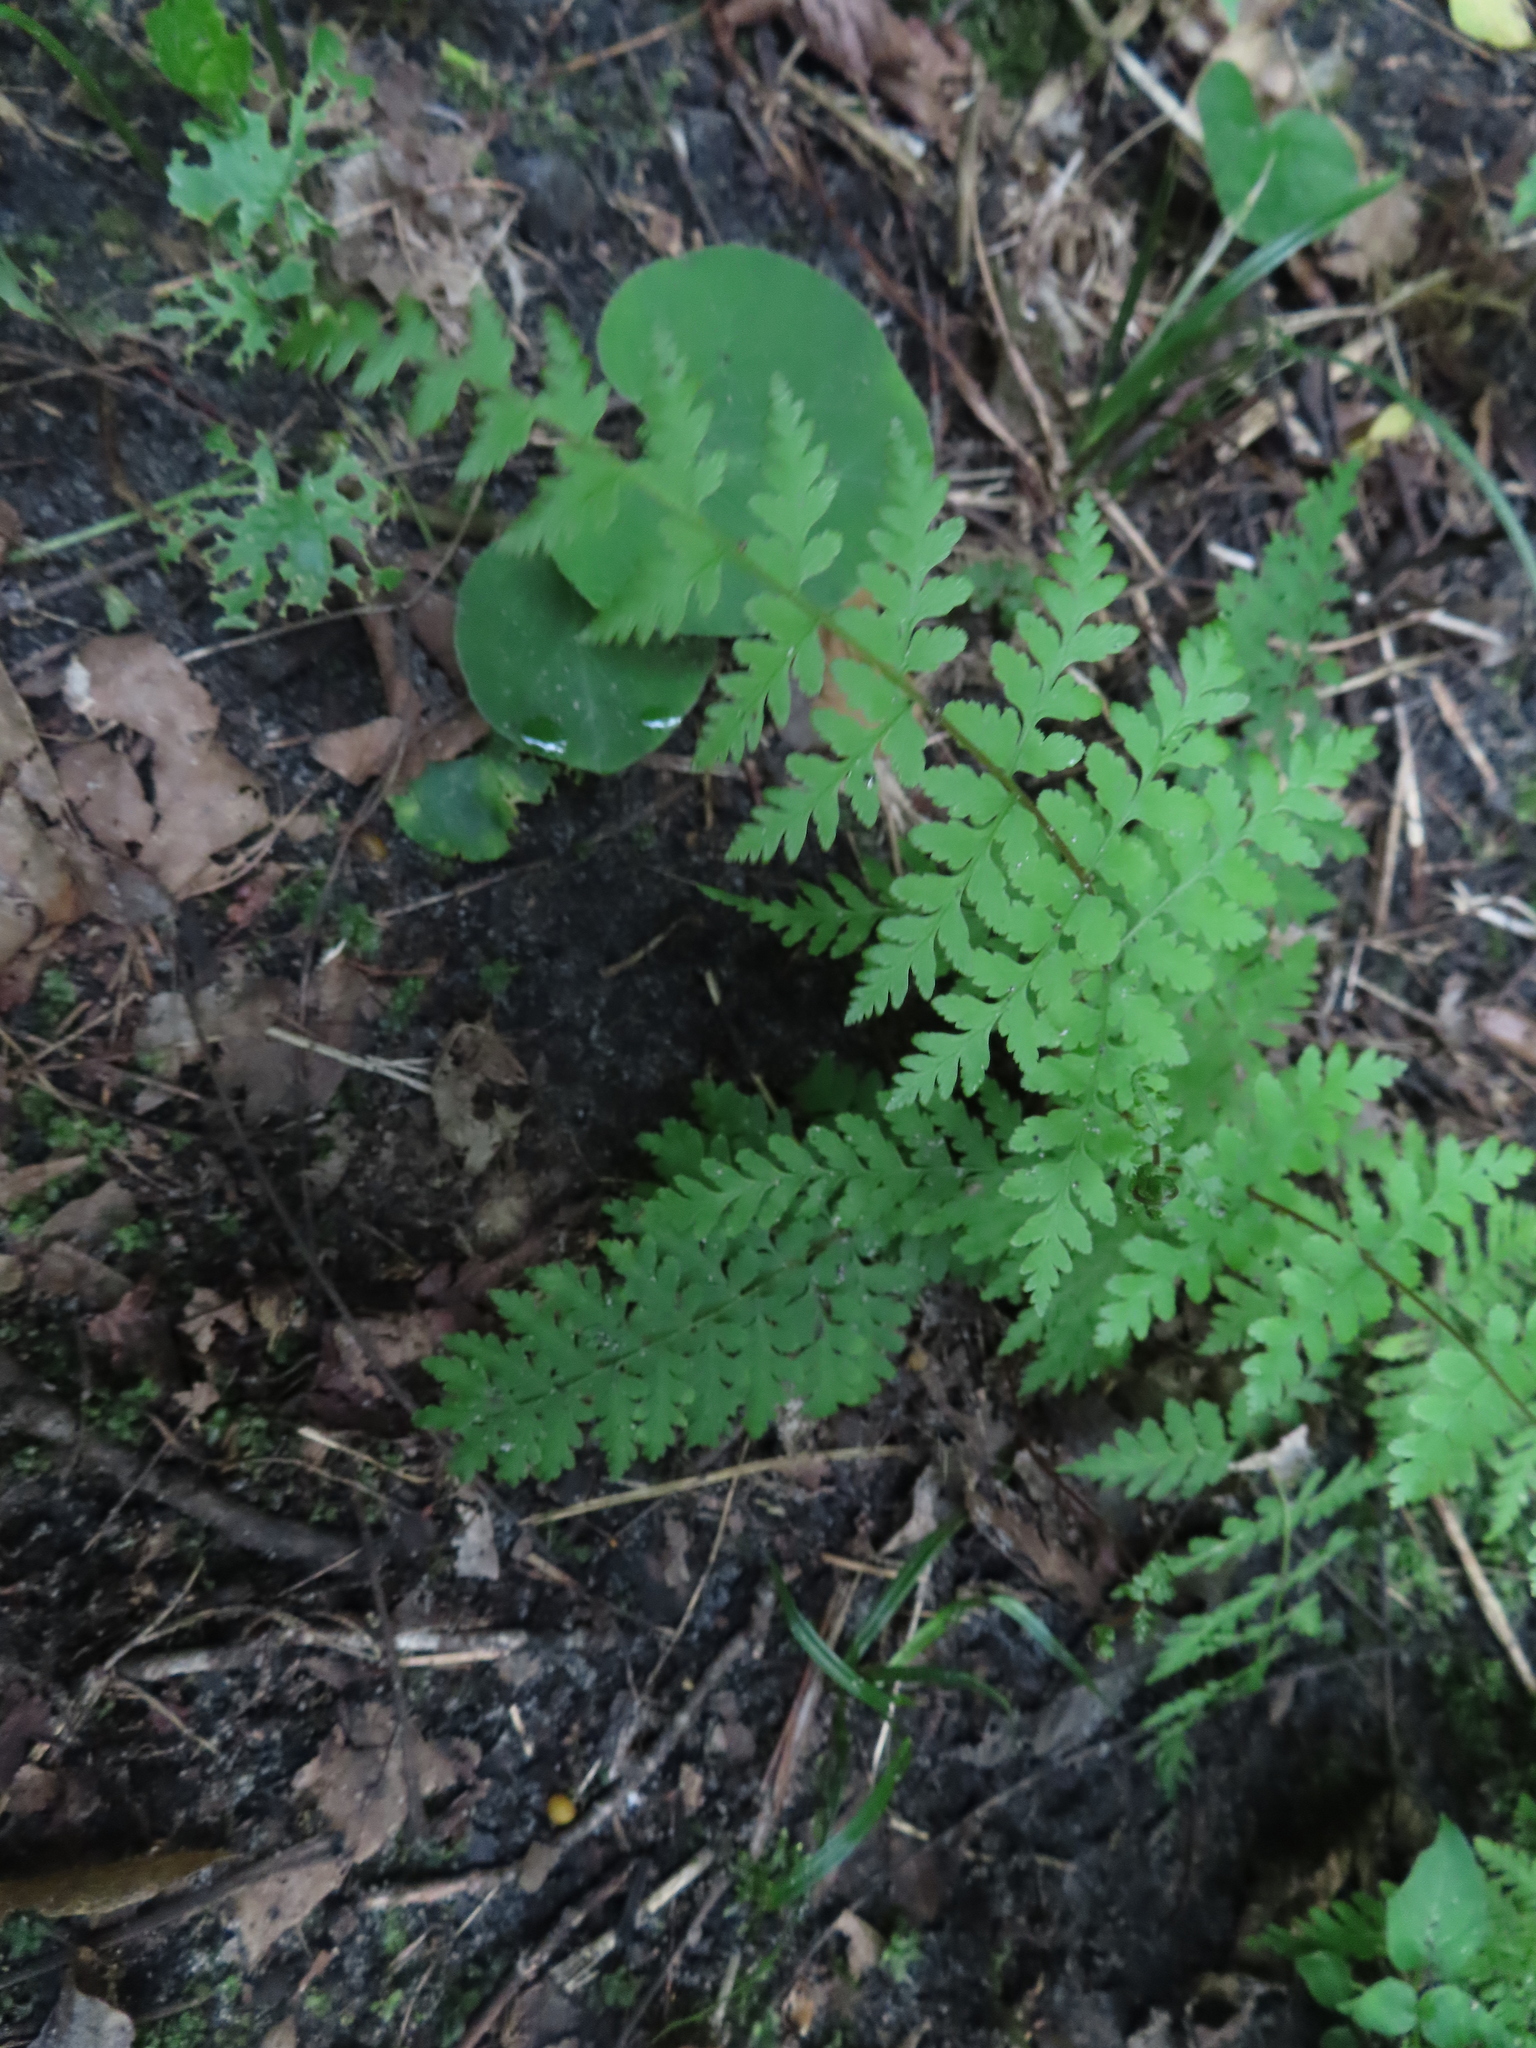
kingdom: Plantae
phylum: Tracheophyta
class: Polypodiopsida
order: Polypodiales
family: Cystopteridaceae
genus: Cystopteris
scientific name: Cystopteris bulbifera
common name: Bulblet bladder fern
